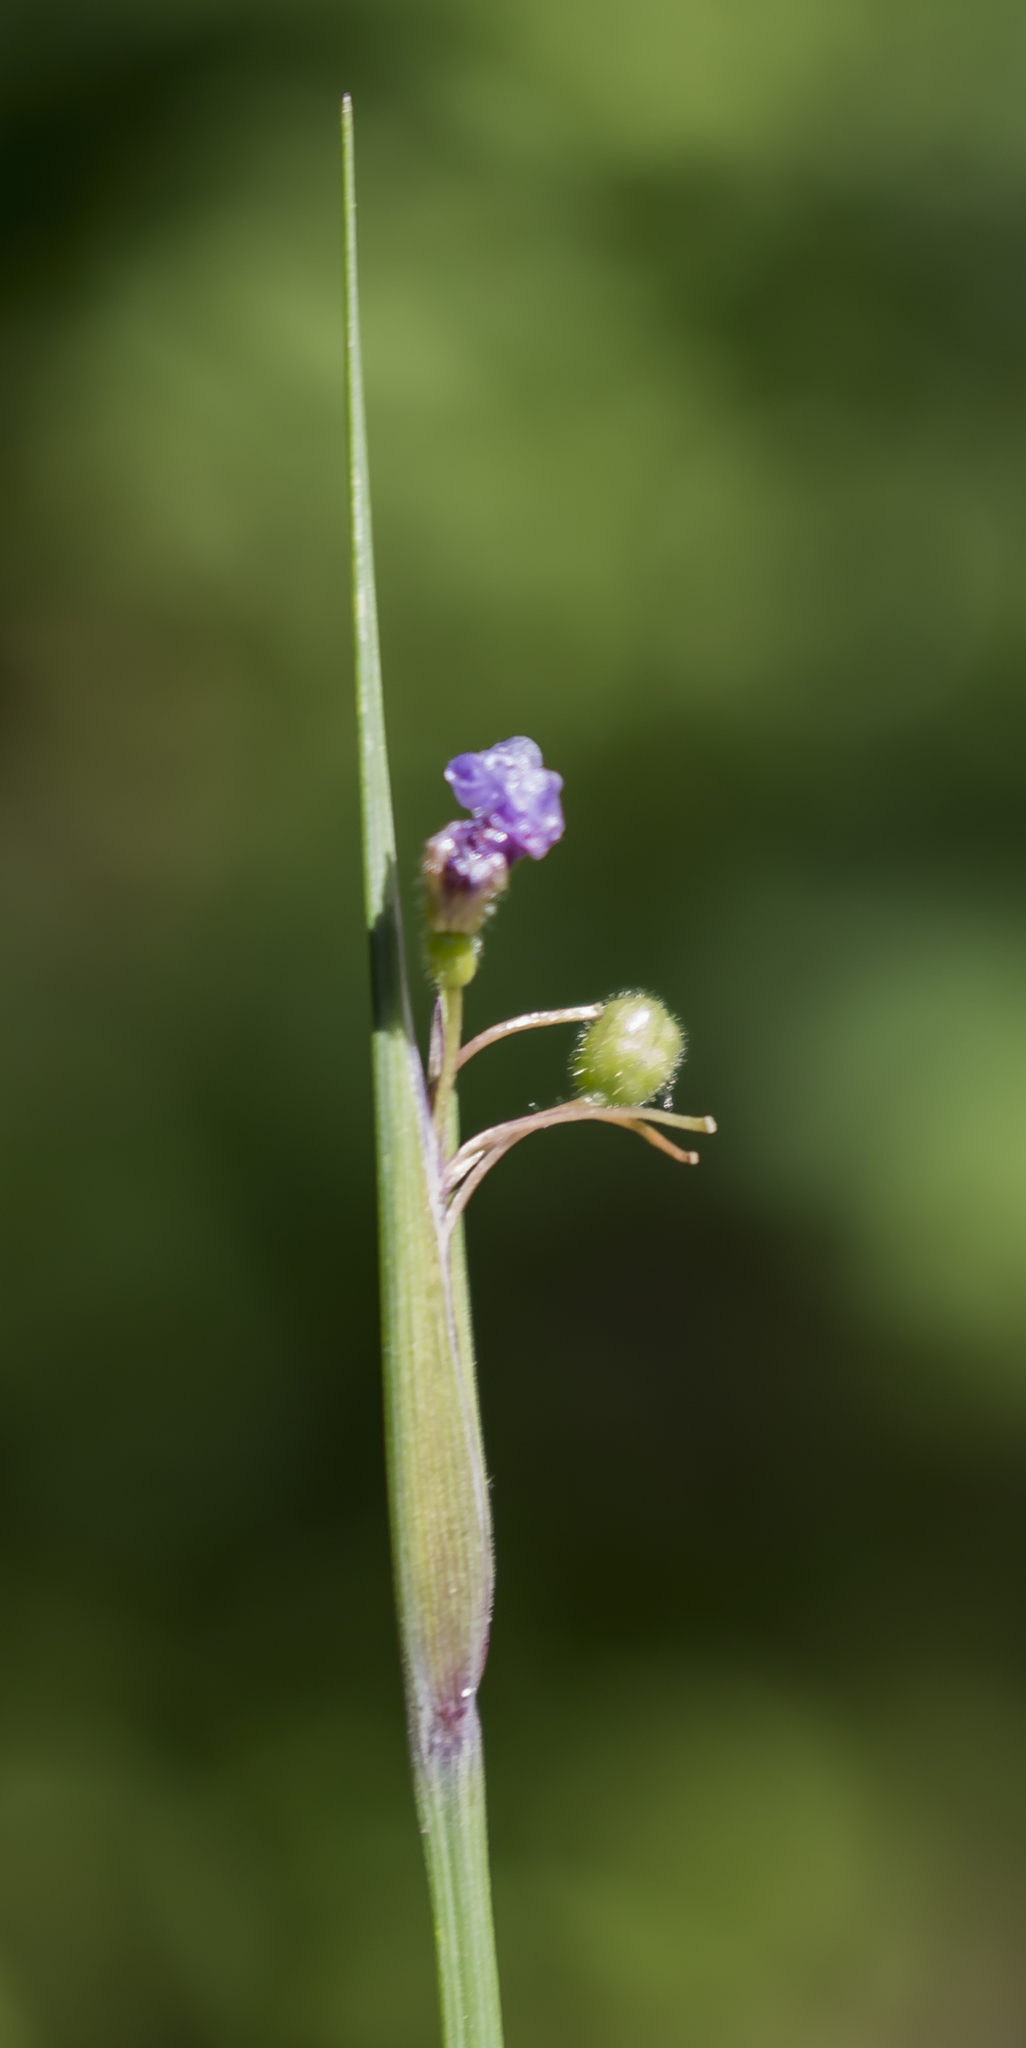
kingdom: Plantae
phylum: Tracheophyta
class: Liliopsida
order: Asparagales
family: Iridaceae
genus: Sisyrinchium
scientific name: Sisyrinchium campestre
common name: Prairie blue-eyed-grass
